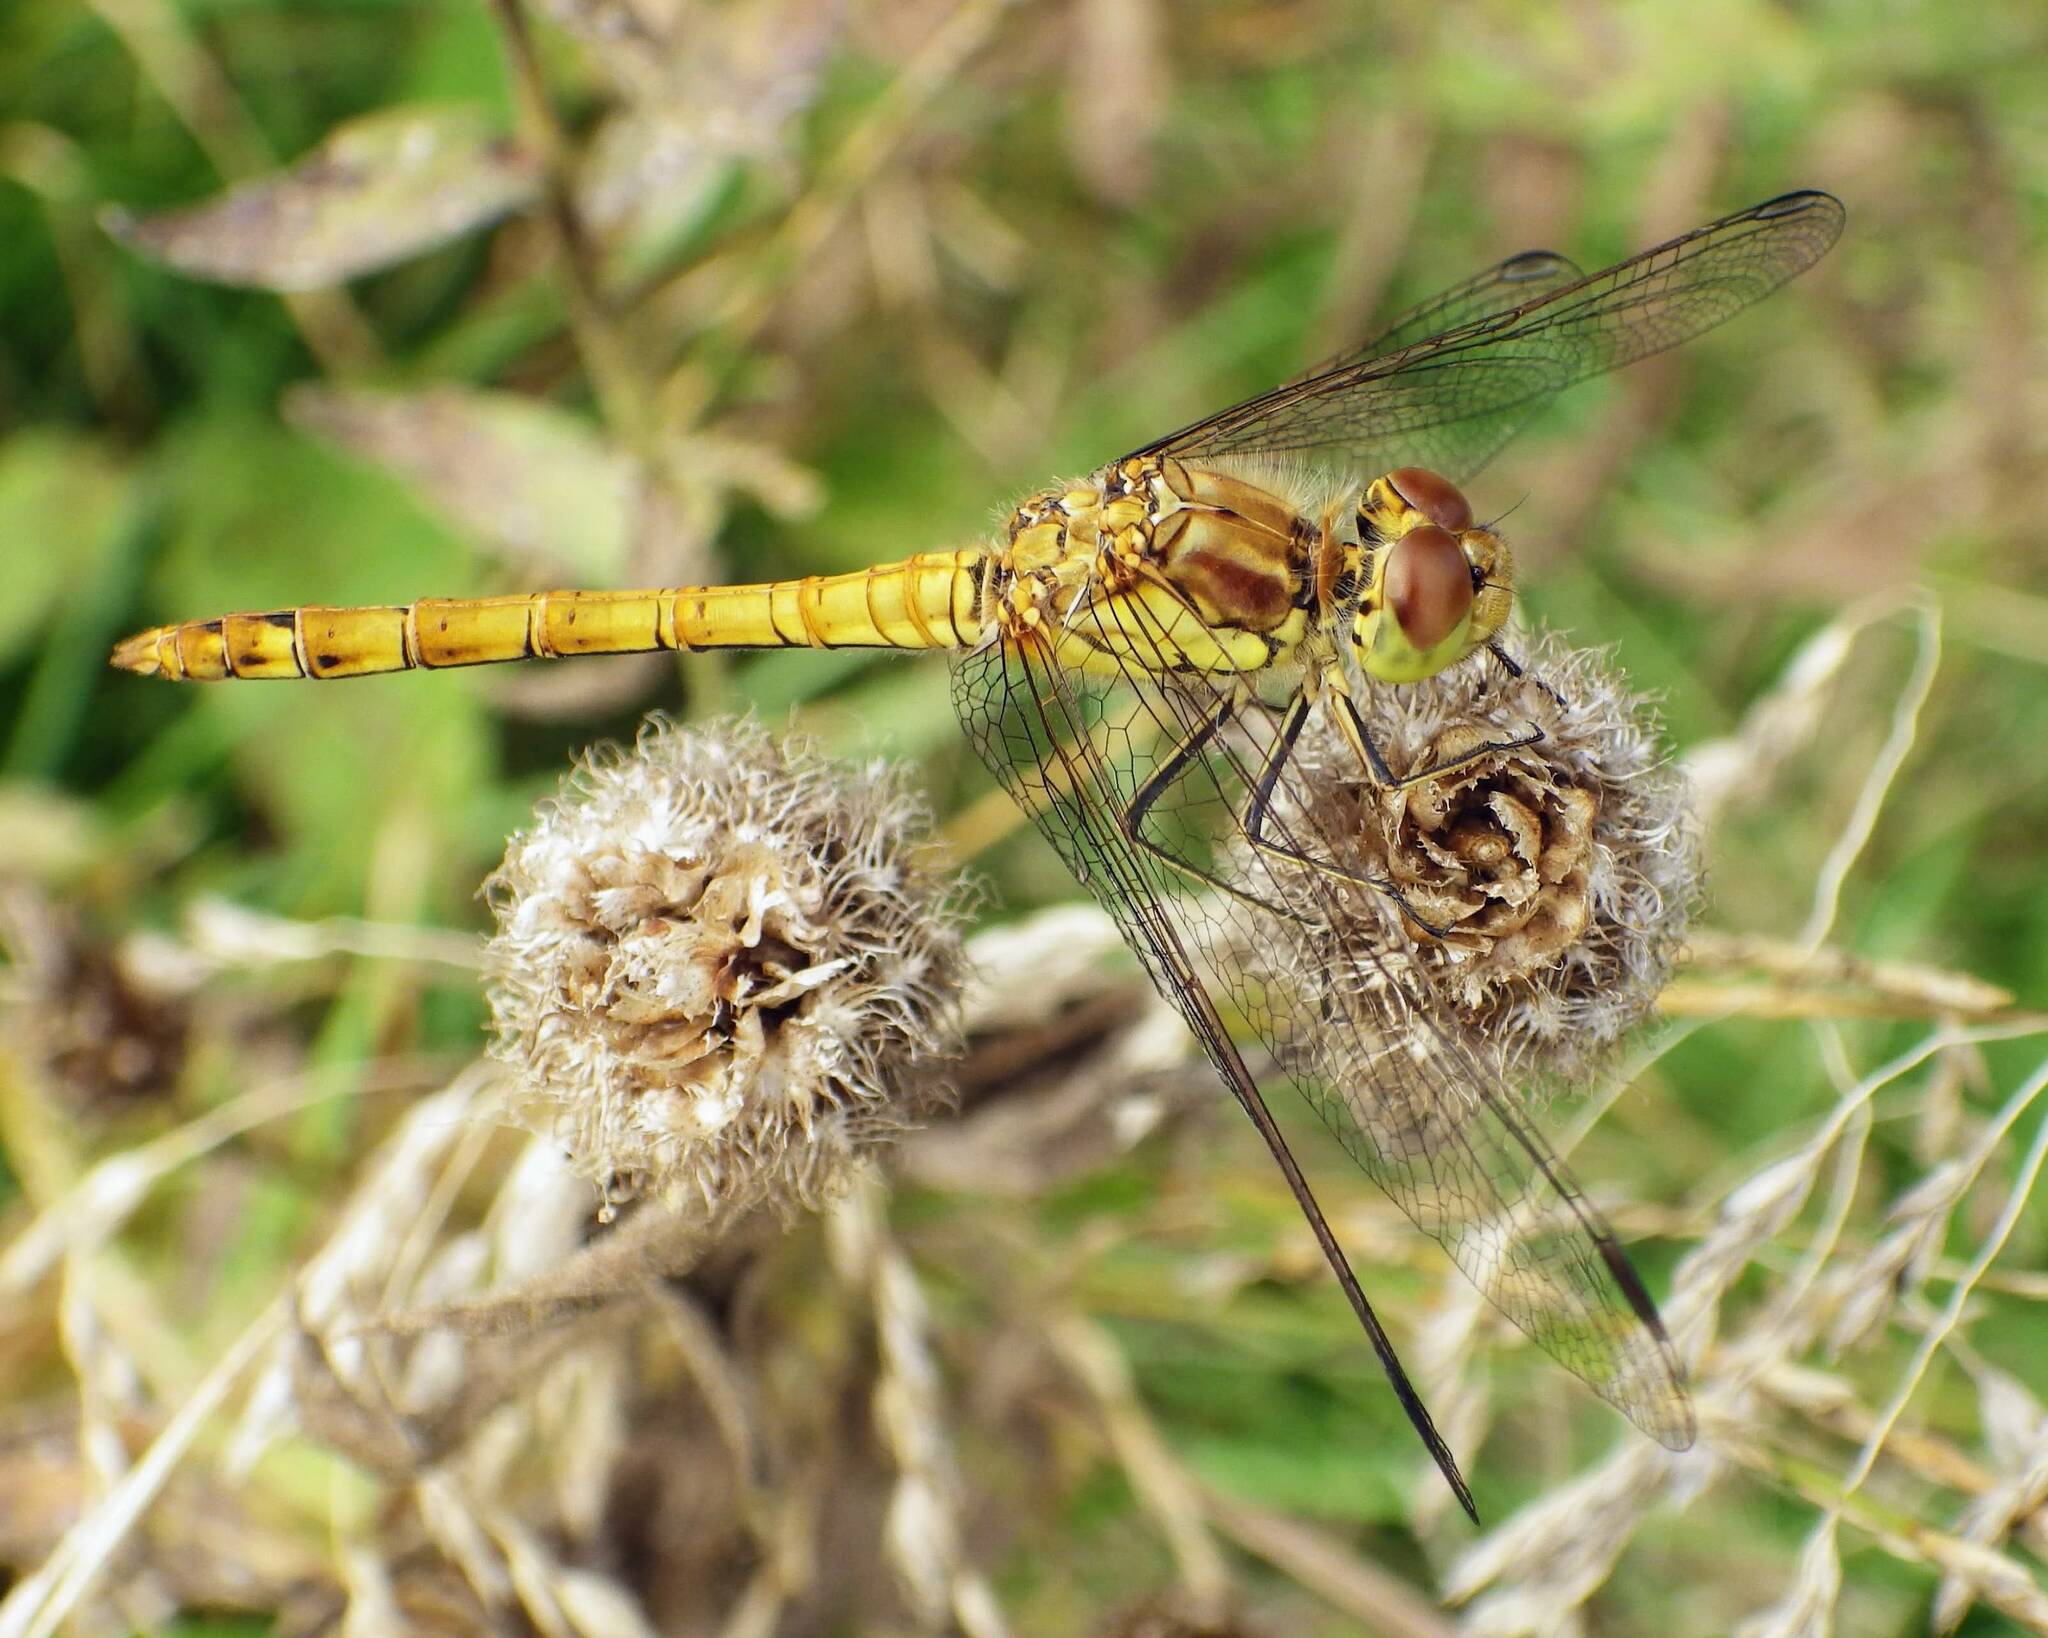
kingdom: Animalia
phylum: Arthropoda
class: Insecta
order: Odonata
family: Libellulidae
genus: Sympetrum
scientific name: Sympetrum striolatum
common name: Common darter
